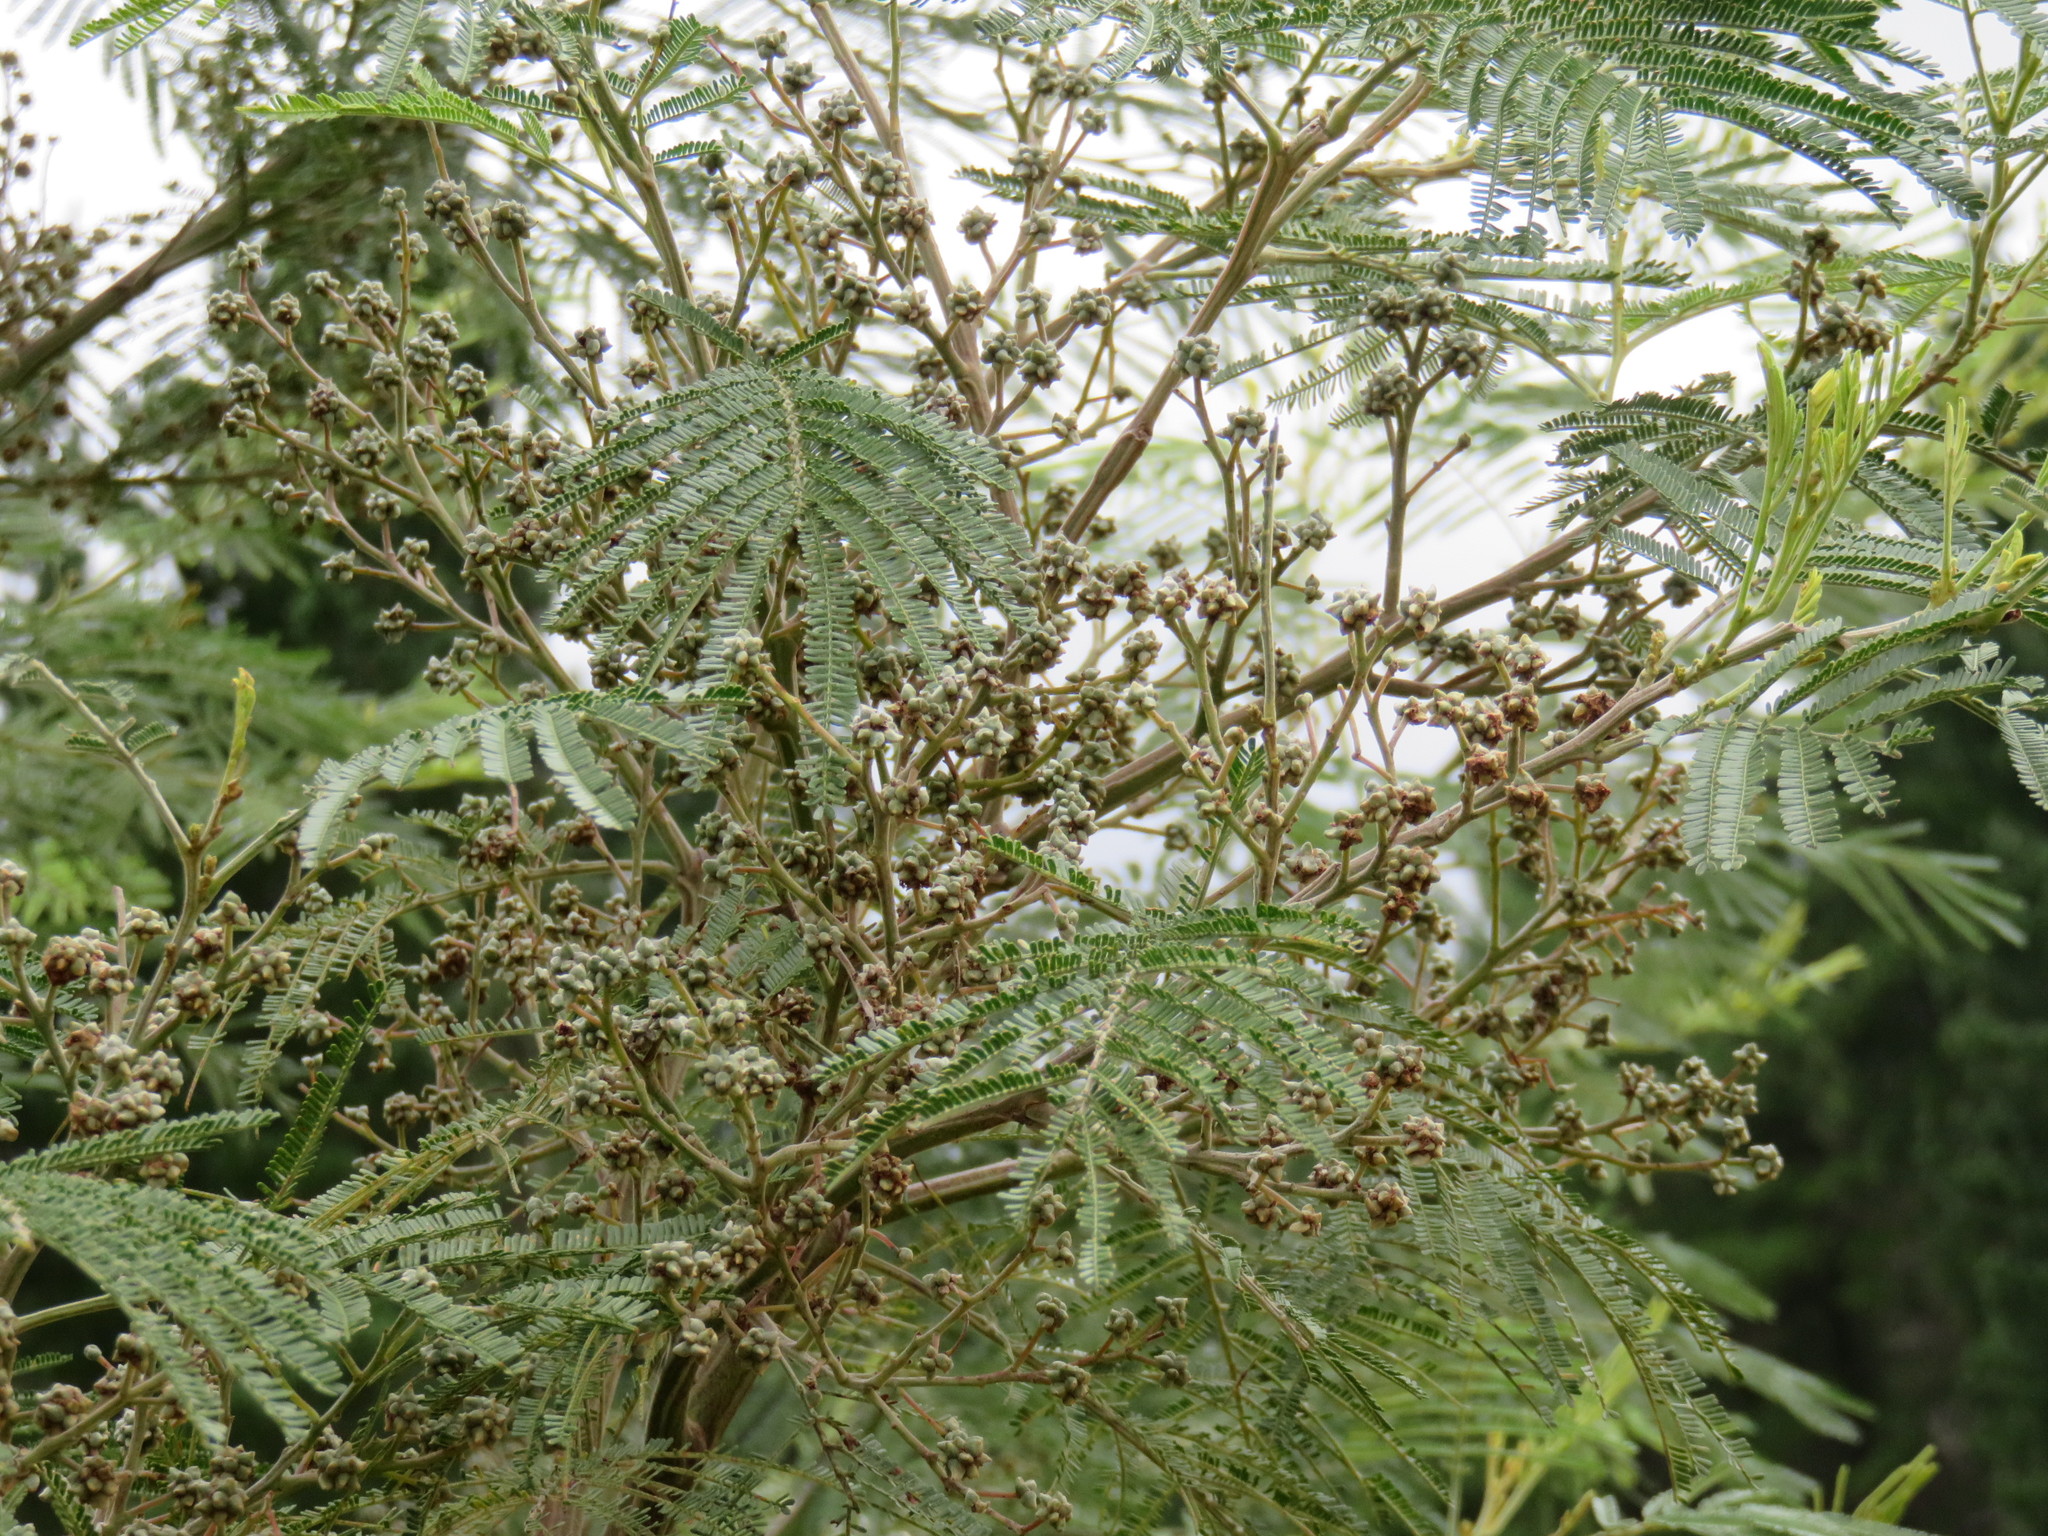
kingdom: Plantae
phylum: Tracheophyta
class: Magnoliopsida
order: Fabales
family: Fabaceae
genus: Acacia
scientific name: Acacia mearnsii
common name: Black wattle
